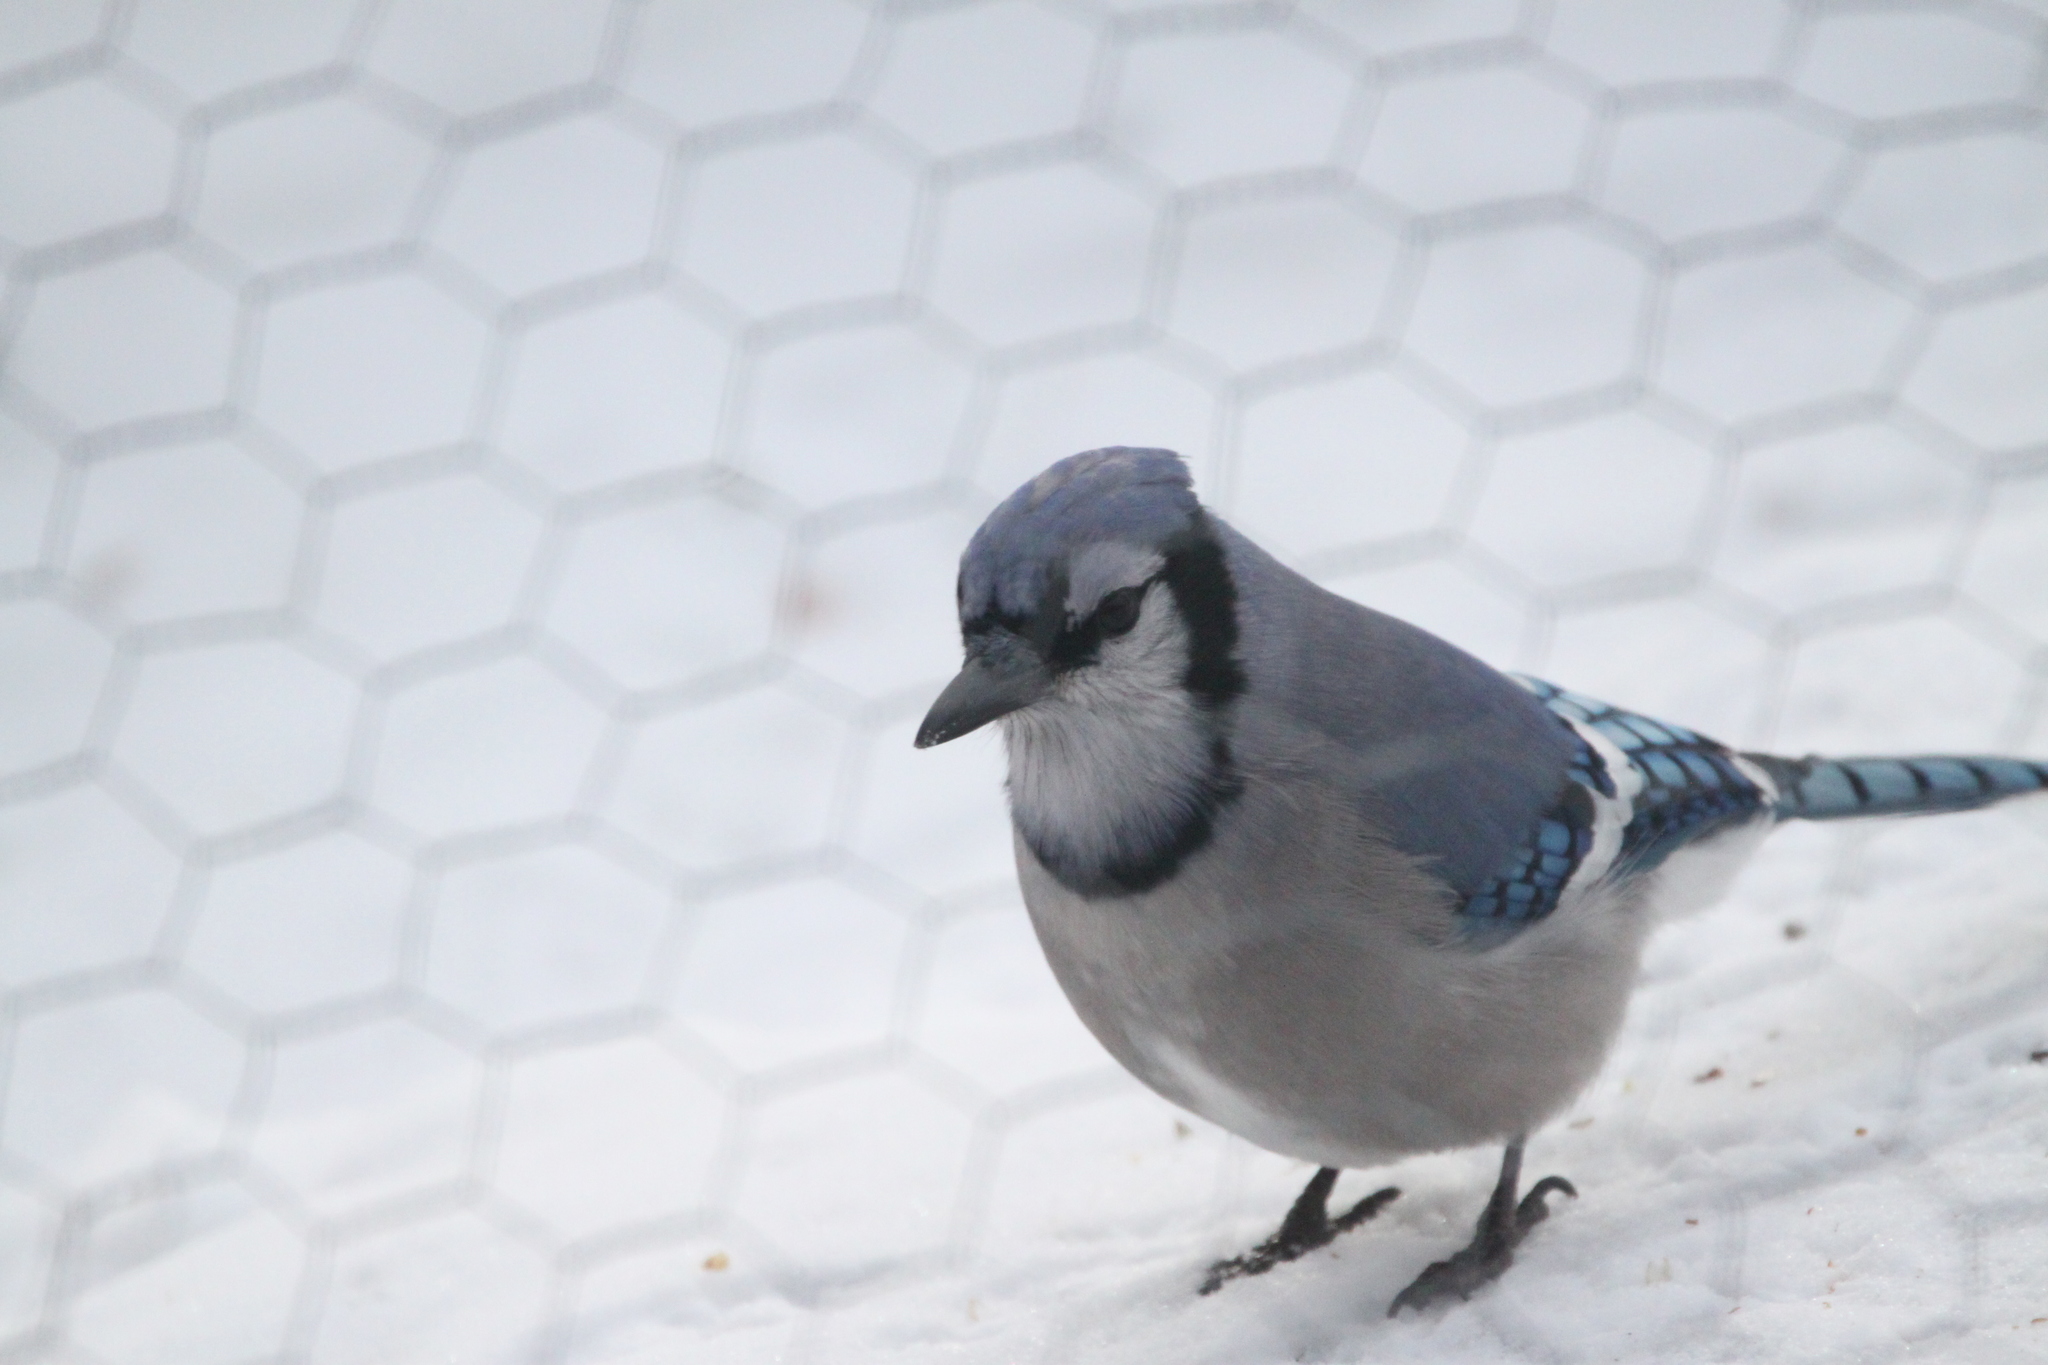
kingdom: Animalia
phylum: Chordata
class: Aves
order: Passeriformes
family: Corvidae
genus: Cyanocitta
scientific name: Cyanocitta cristata
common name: Blue jay
